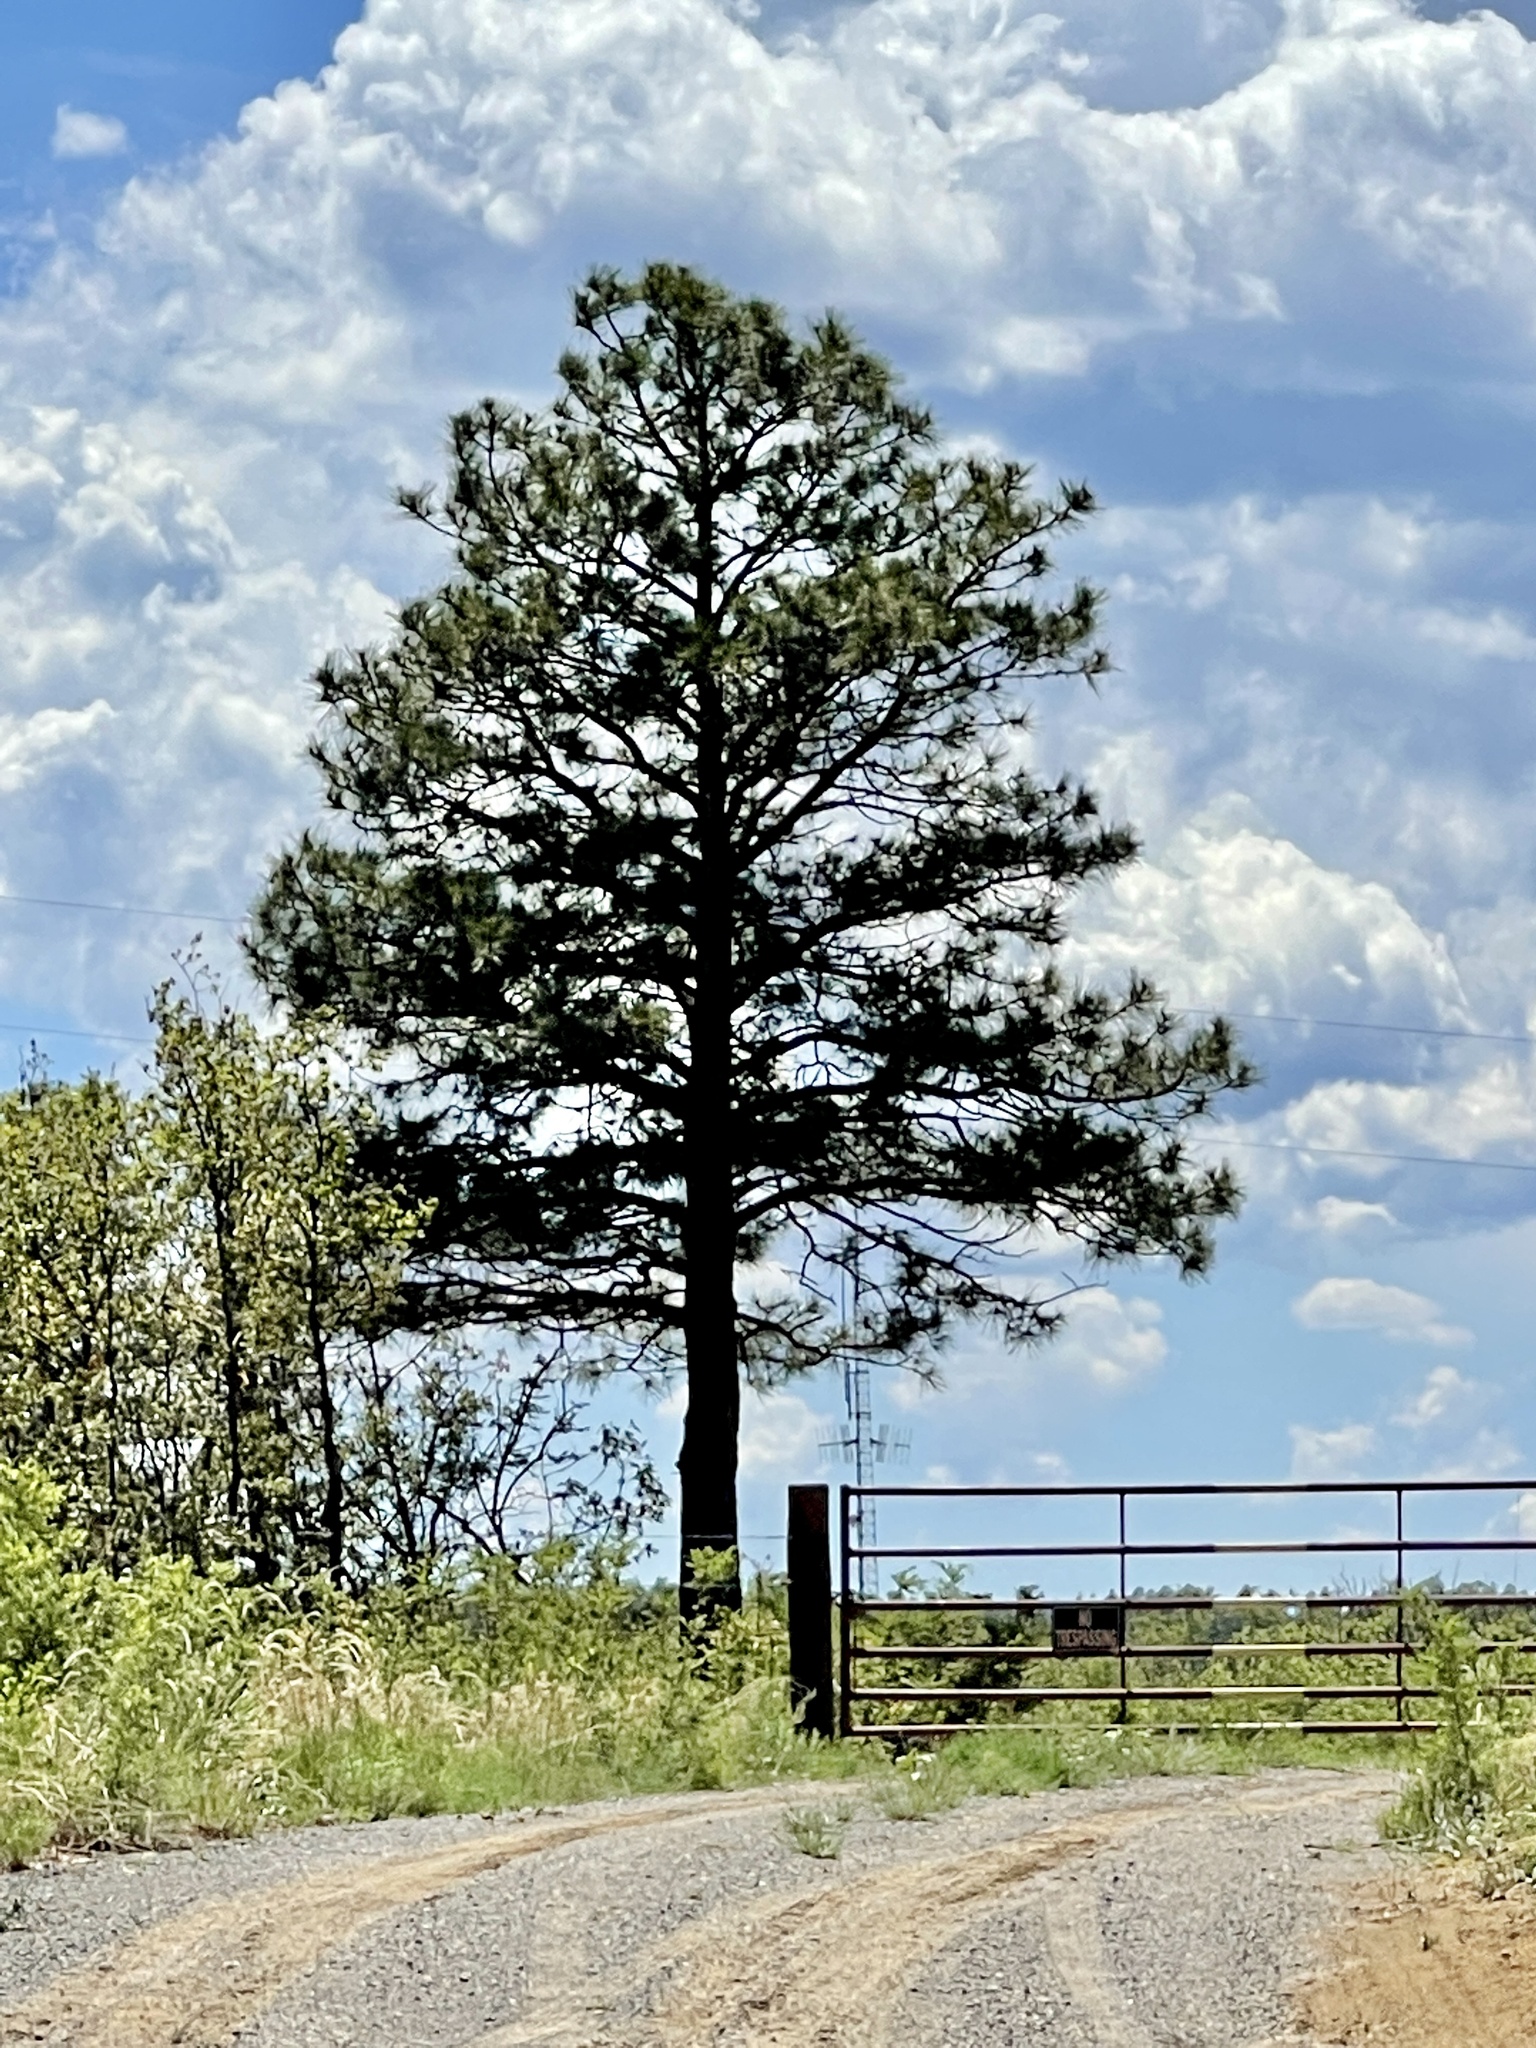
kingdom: Plantae
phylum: Tracheophyta
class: Pinopsida
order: Pinales
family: Pinaceae
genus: Pinus
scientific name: Pinus ponderosa
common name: Western yellow-pine
